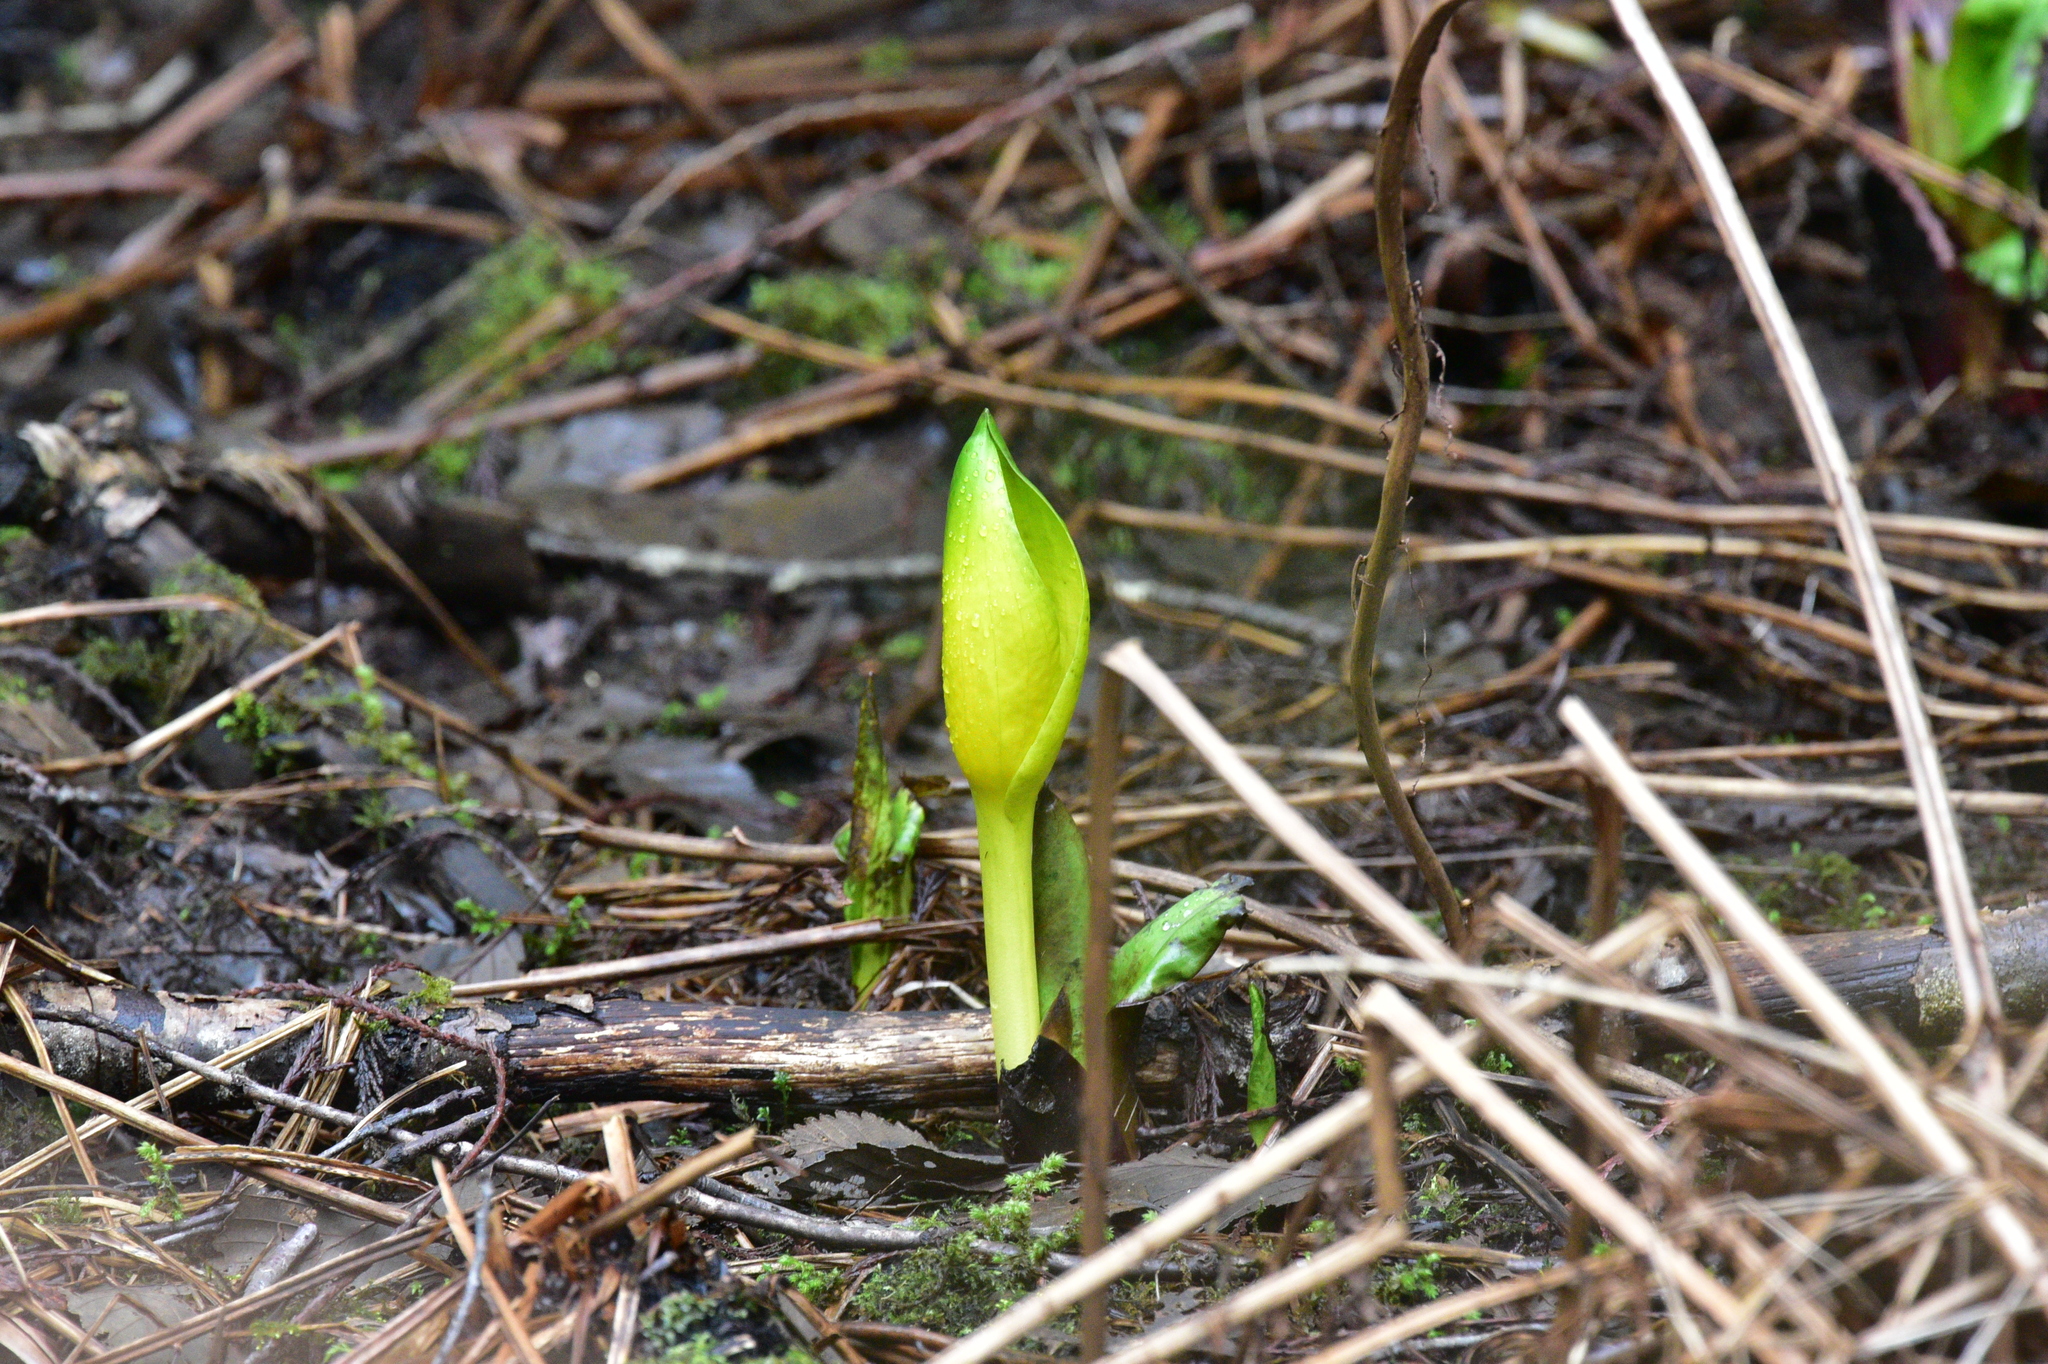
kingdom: Plantae
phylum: Tracheophyta
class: Liliopsida
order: Alismatales
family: Araceae
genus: Lysichiton
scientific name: Lysichiton americanus
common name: American skunk cabbage
